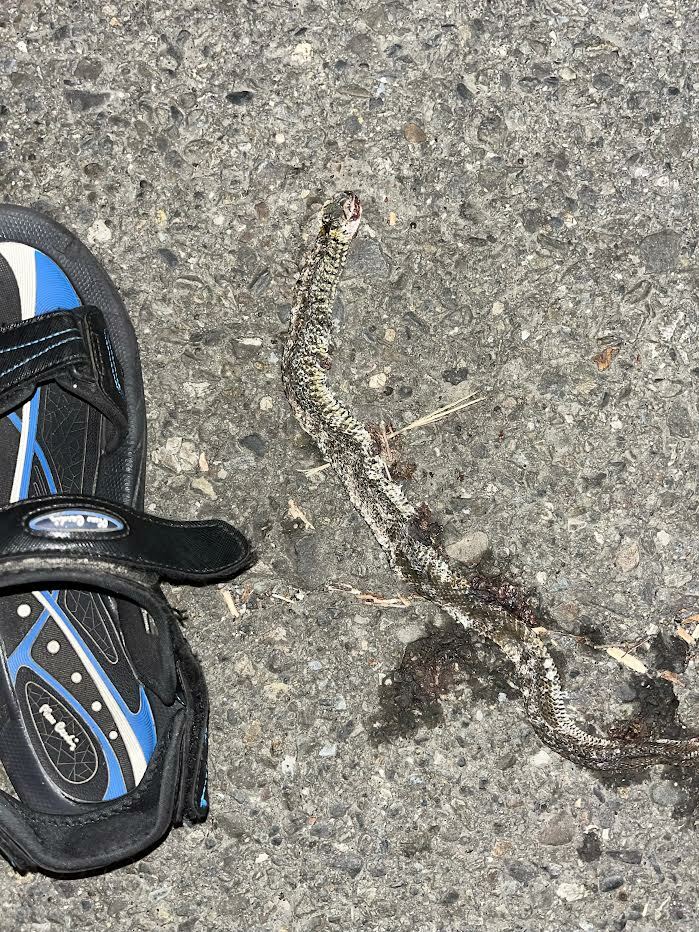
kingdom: Animalia
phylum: Chordata
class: Squamata
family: Colubridae
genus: Fowlea
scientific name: Fowlea flavipunctatus
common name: Yellow-spotted keelback
